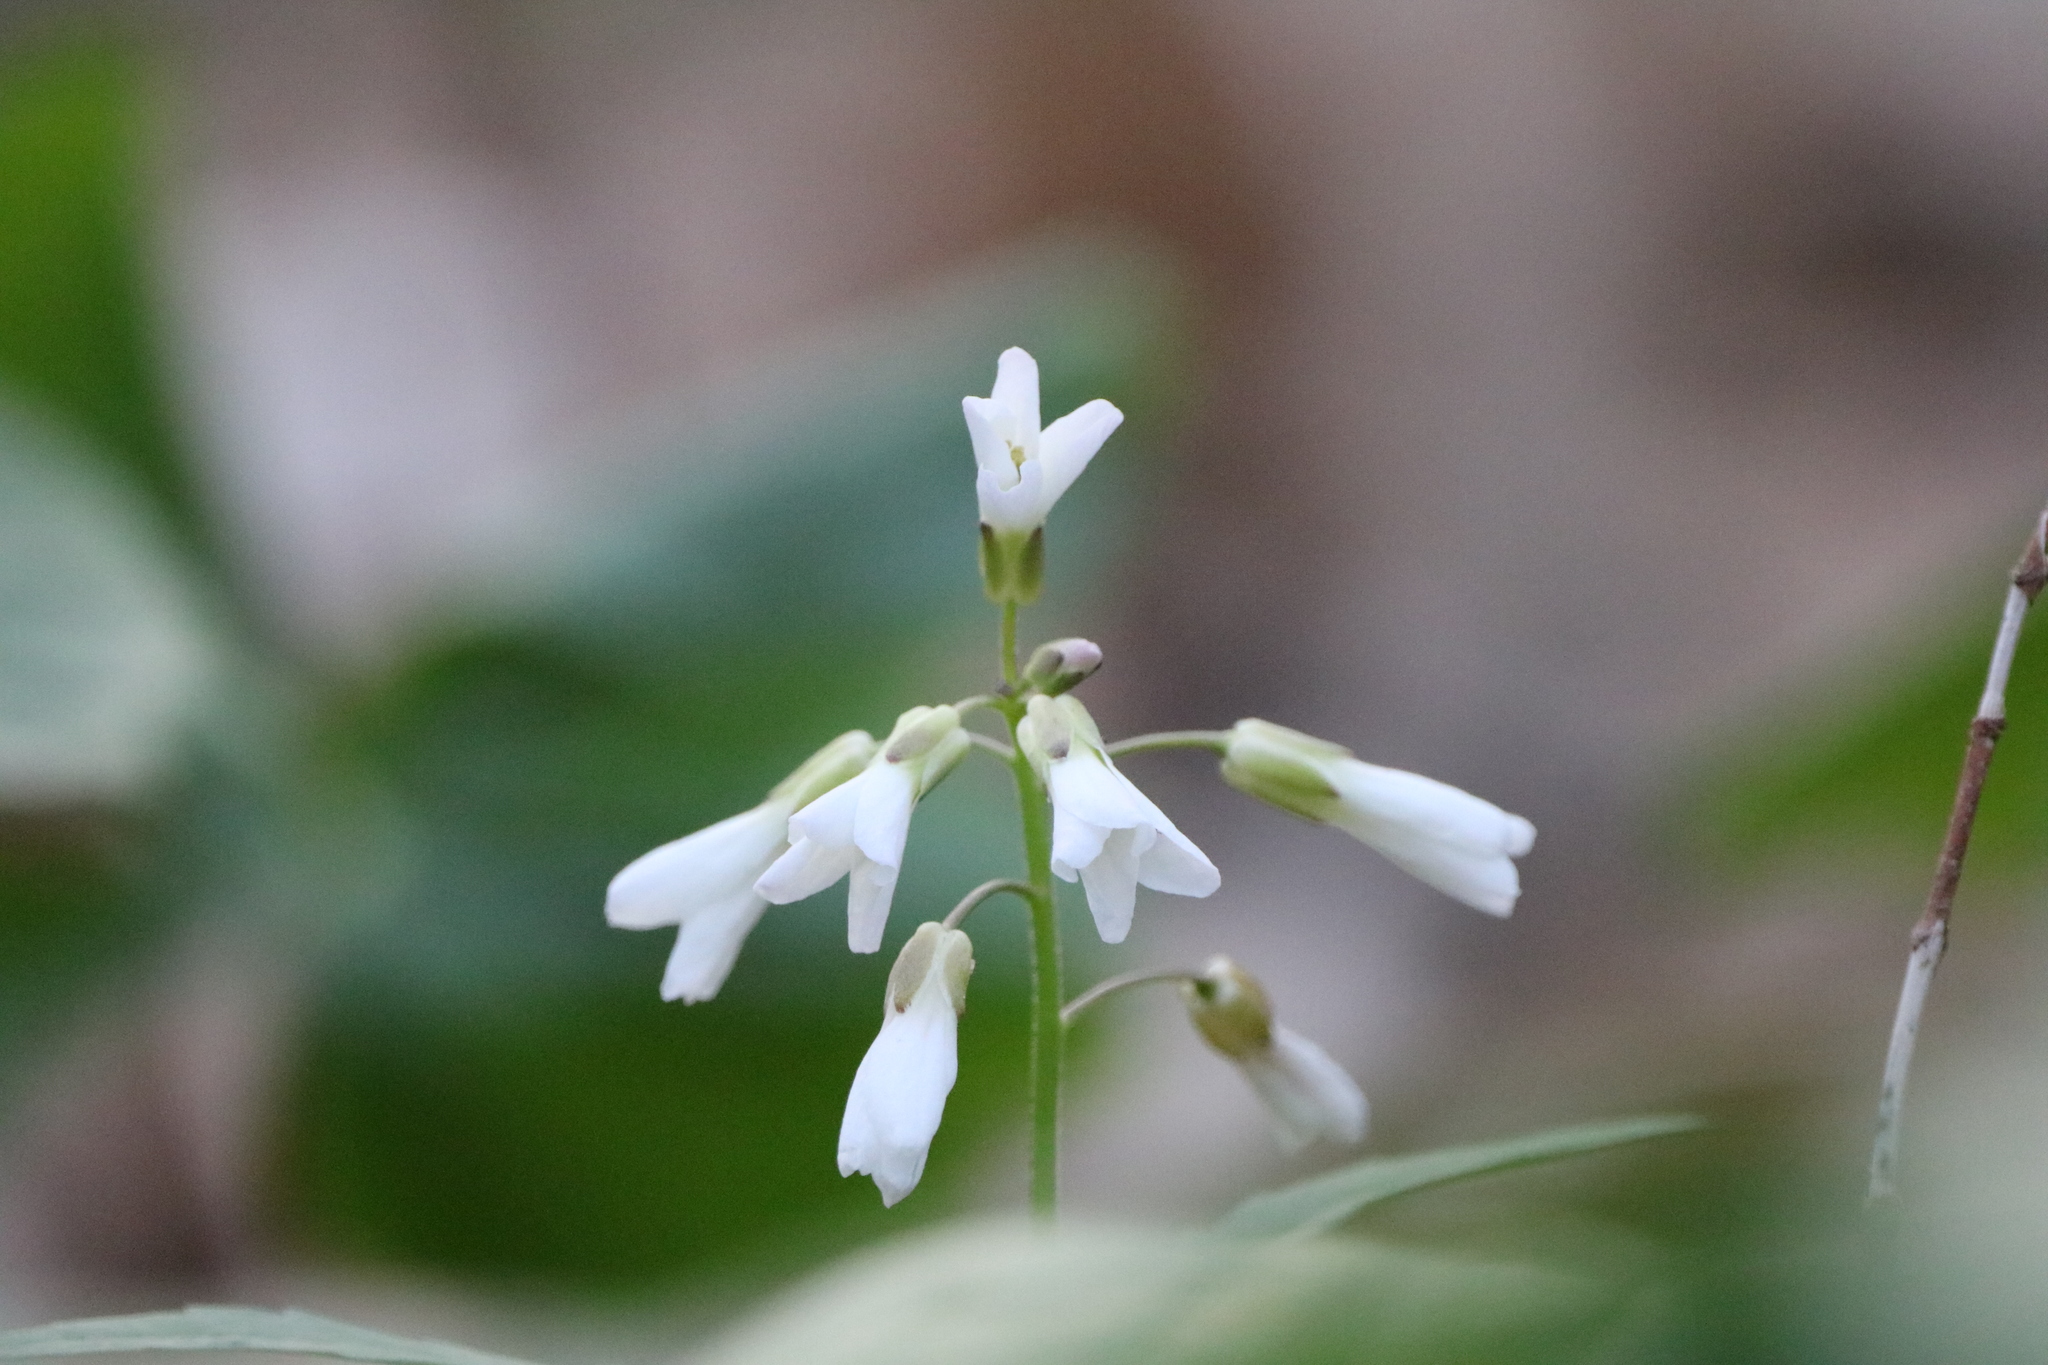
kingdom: Plantae
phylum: Tracheophyta
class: Magnoliopsida
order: Brassicales
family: Brassicaceae
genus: Cardamine
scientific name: Cardamine concatenata
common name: Cut-leaf toothcup
